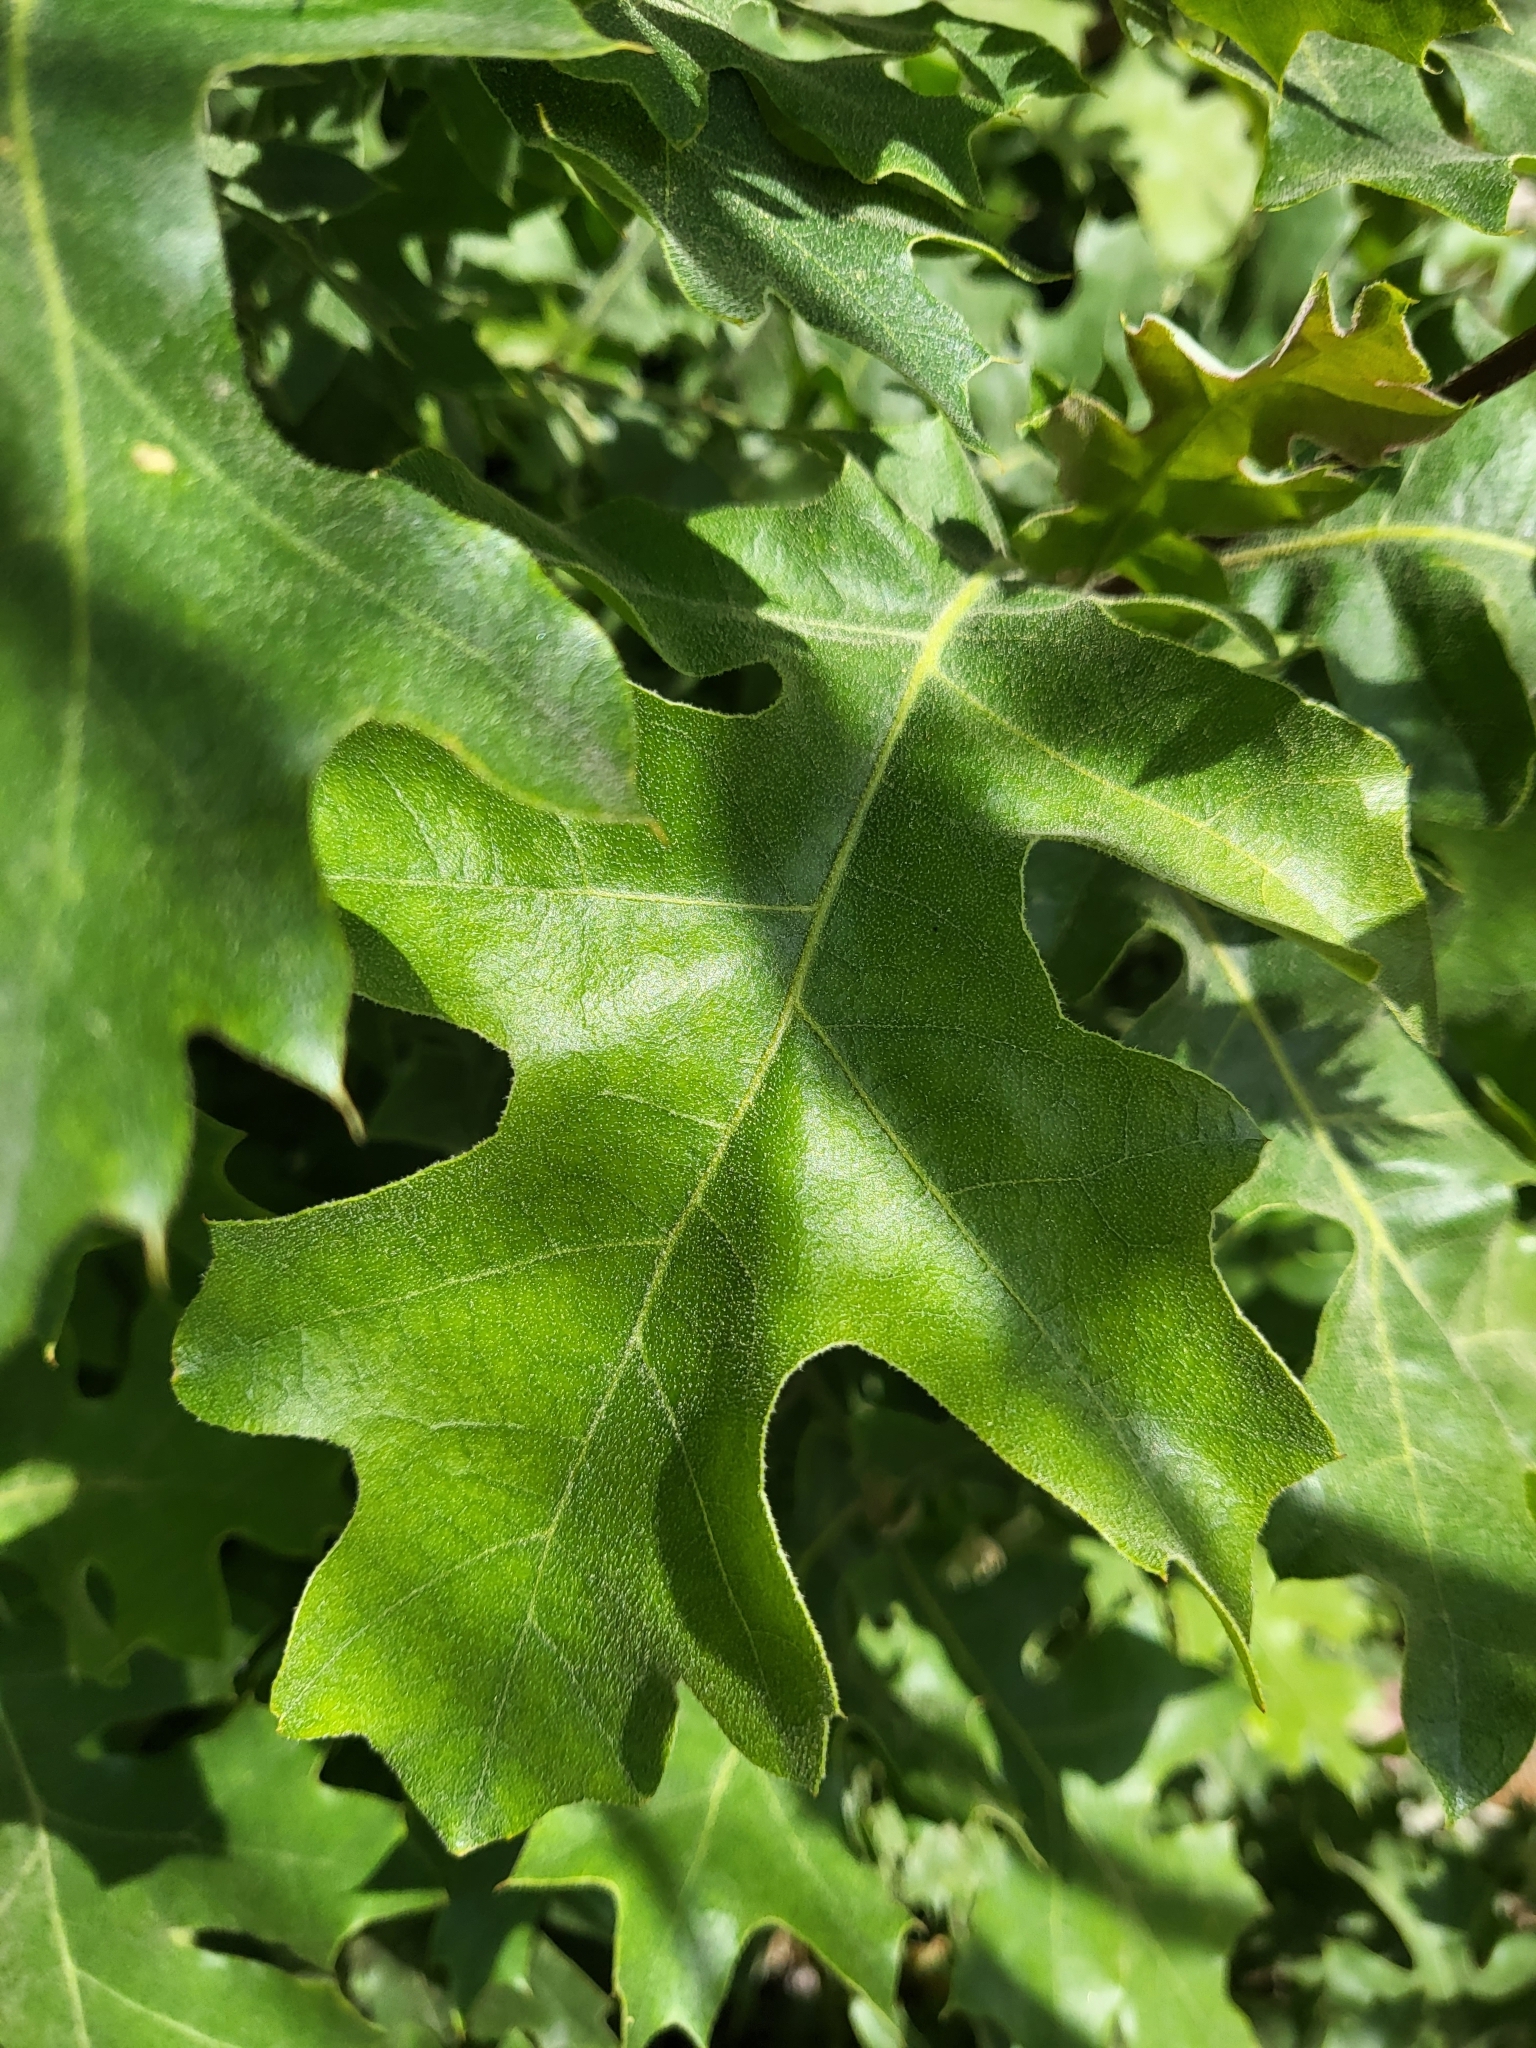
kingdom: Plantae
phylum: Tracheophyta
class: Magnoliopsida
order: Fagales
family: Fagaceae
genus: Quercus
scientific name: Quercus kelloggii
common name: California black oak
